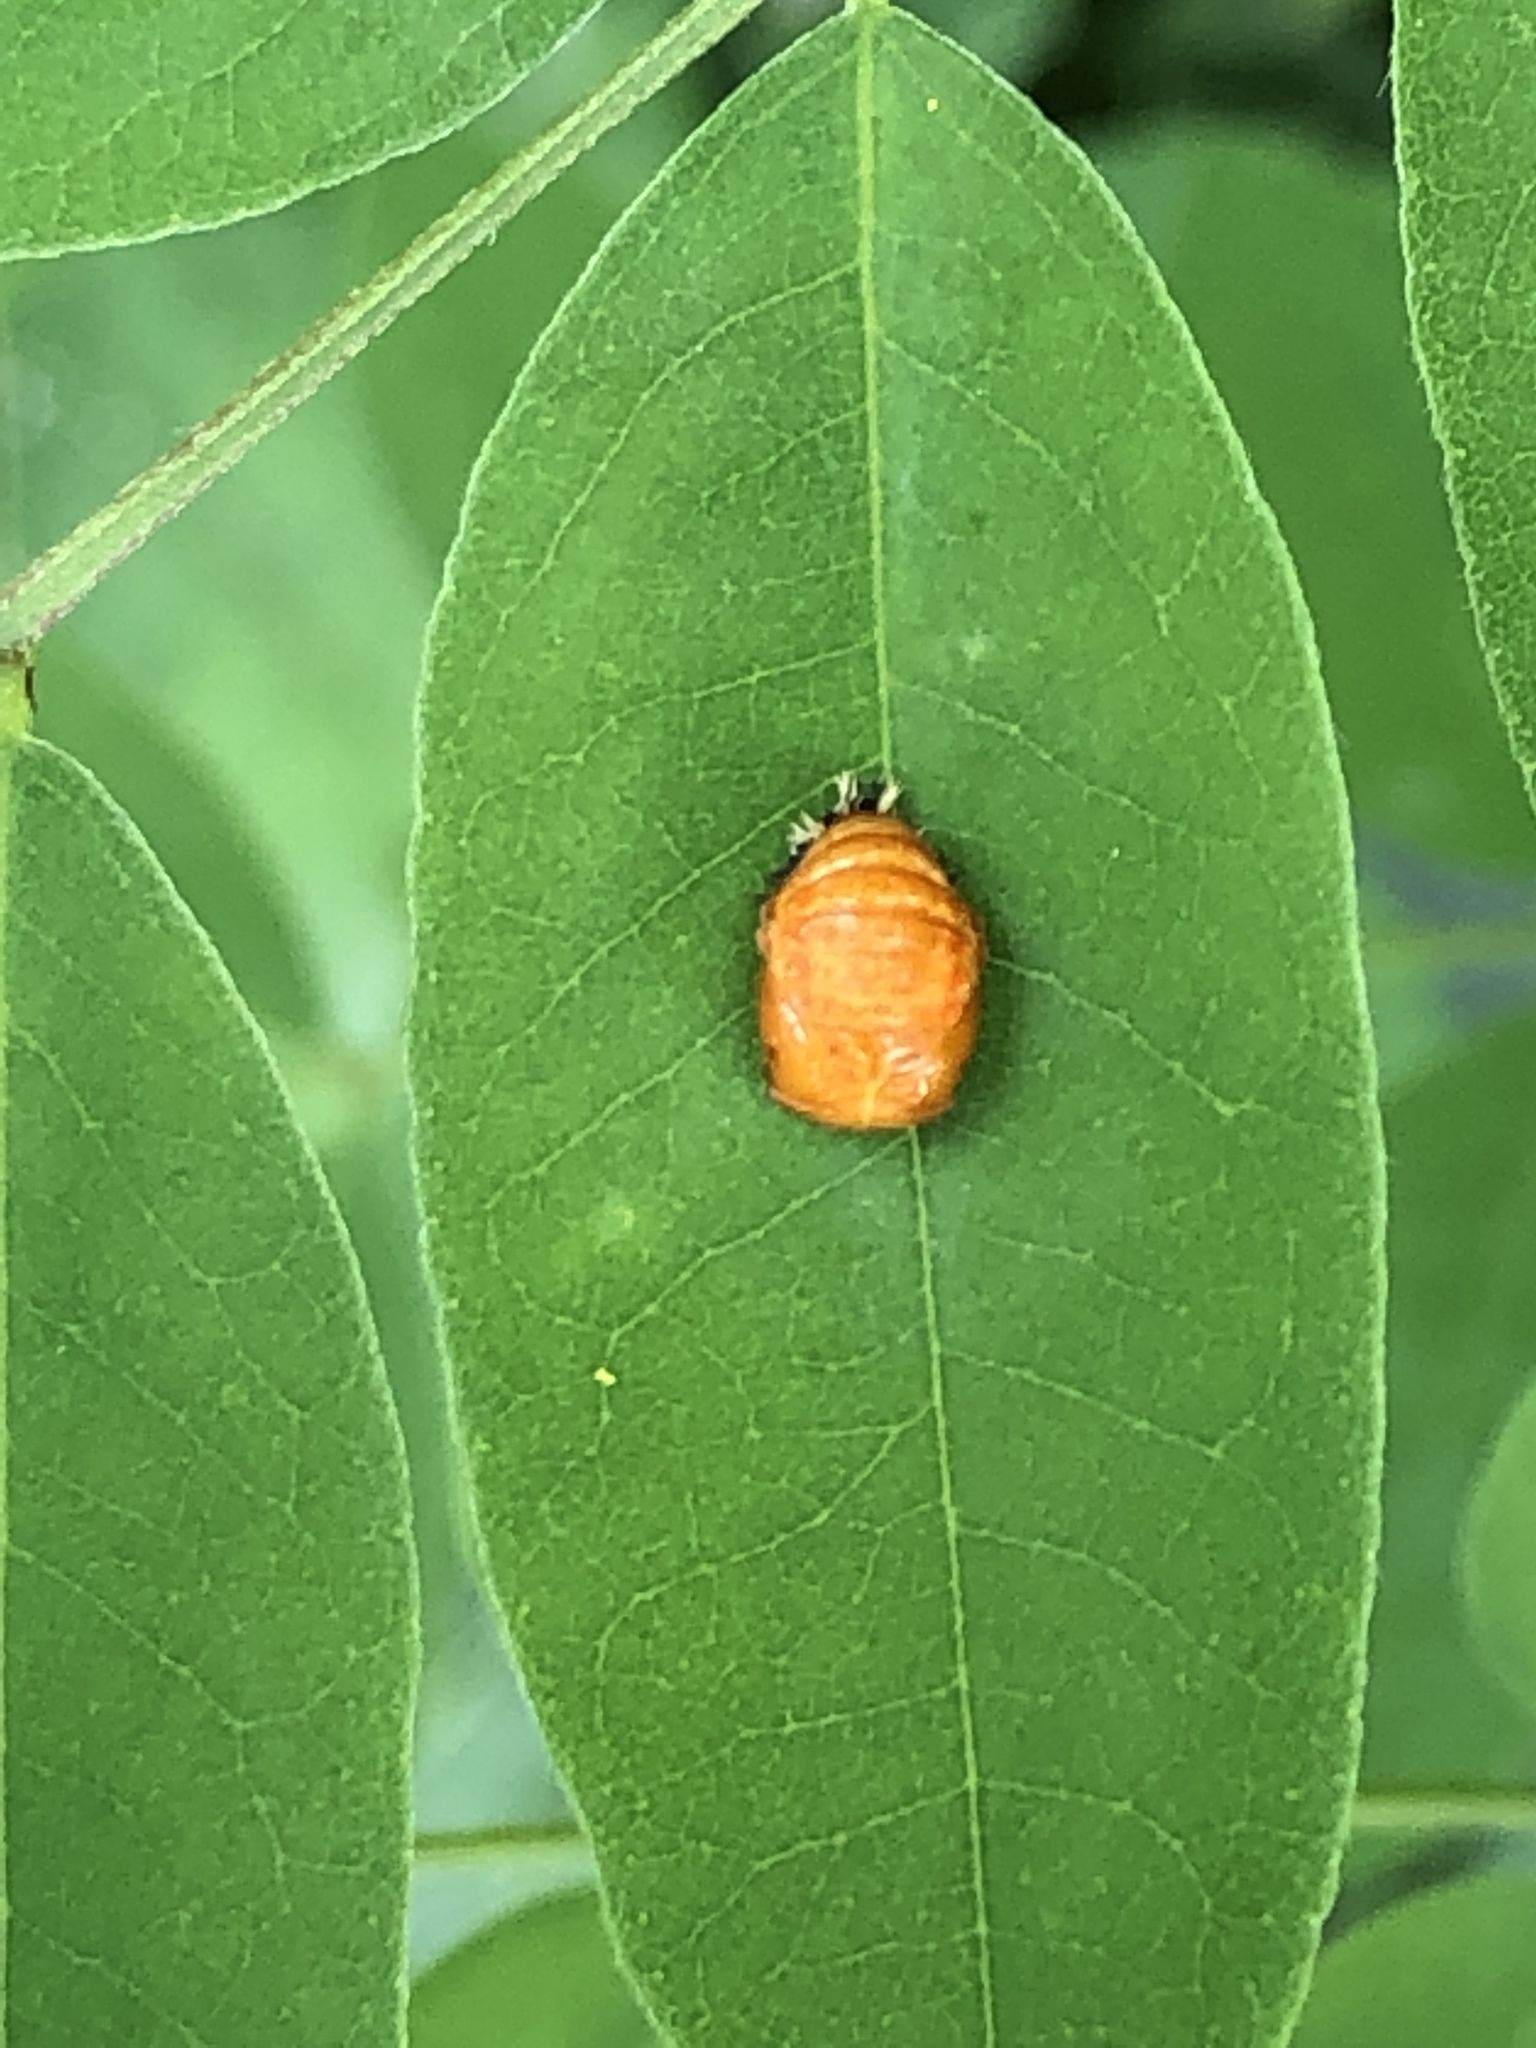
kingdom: Animalia
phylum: Arthropoda
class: Insecta
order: Coleoptera
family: Coccinellidae
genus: Harmonia
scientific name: Harmonia axyridis
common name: Harlequin ladybird
